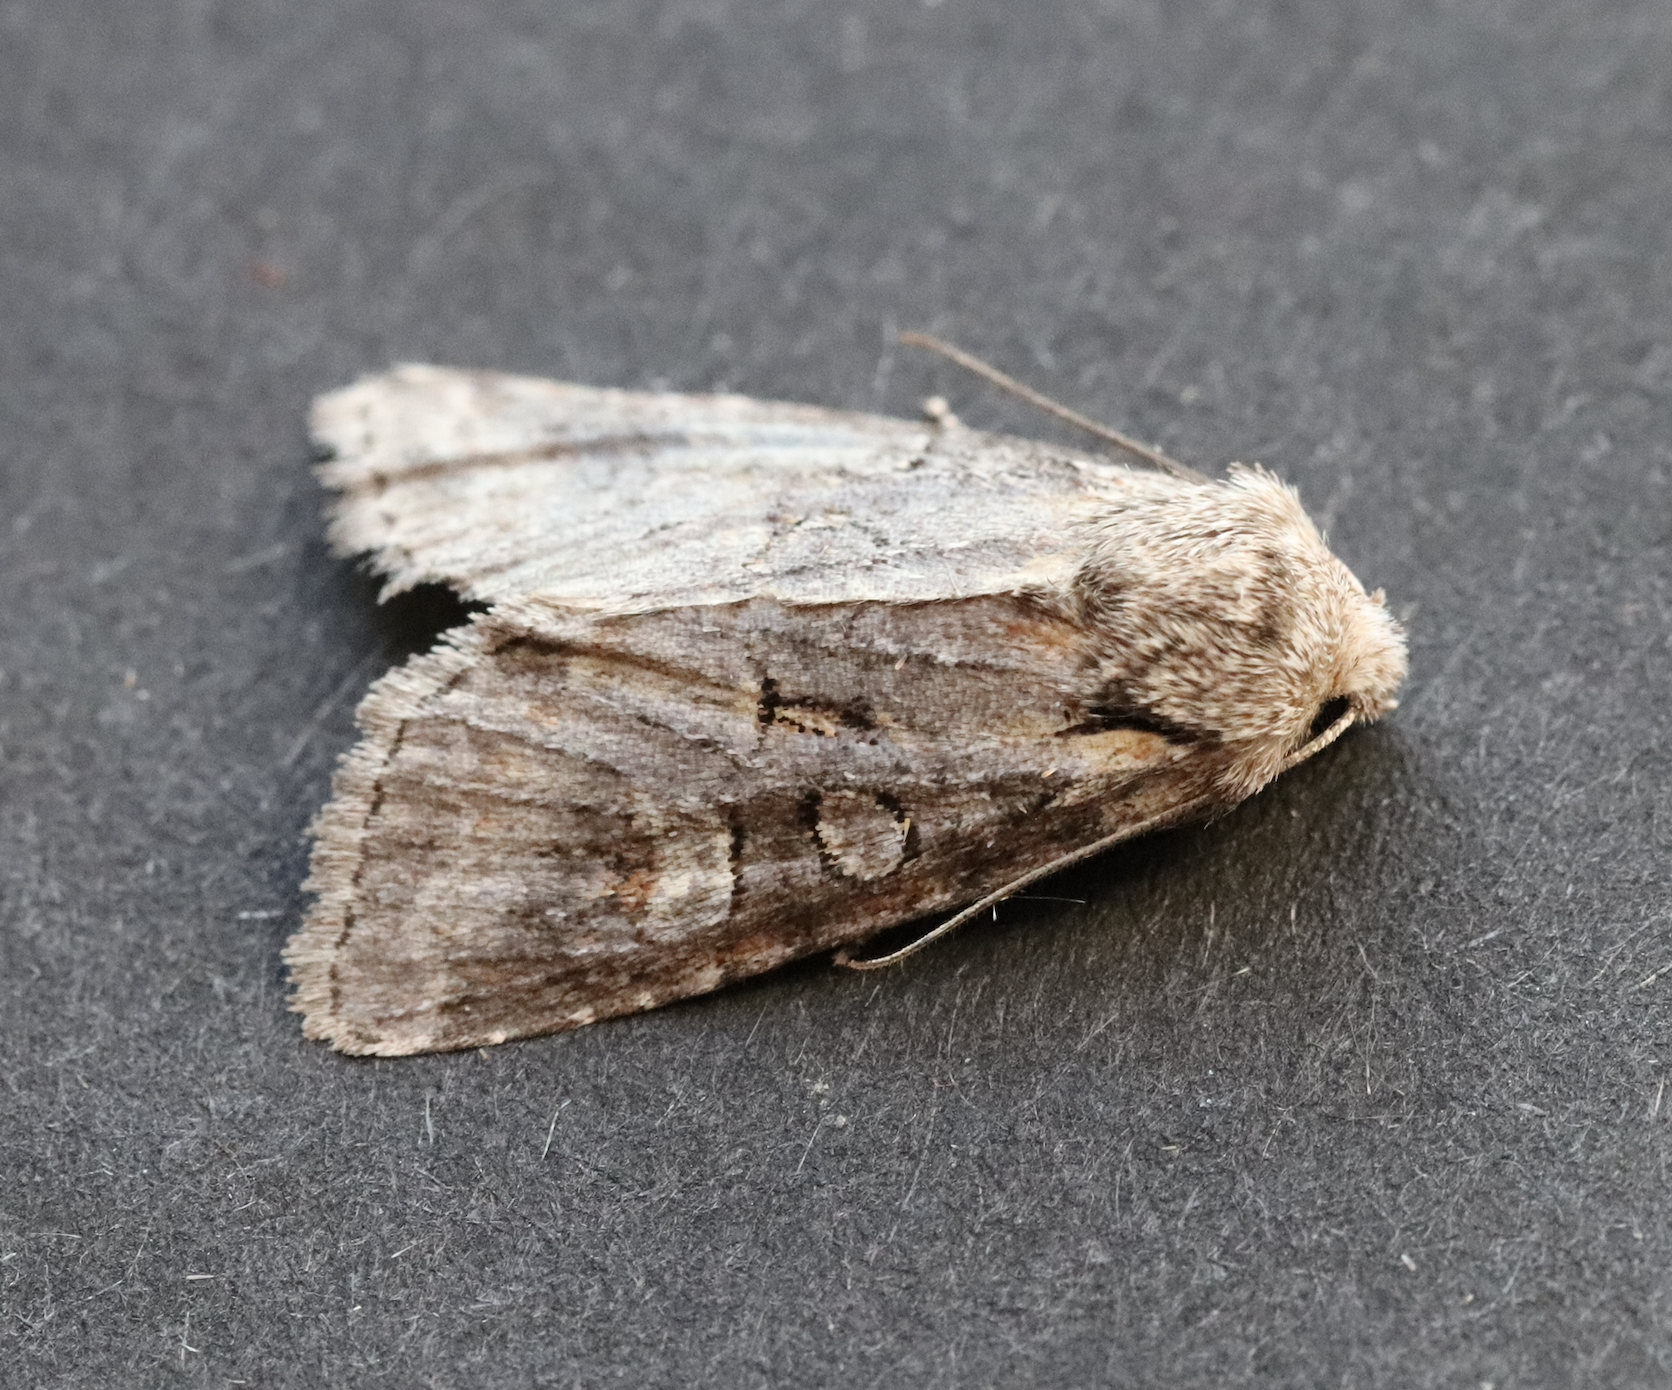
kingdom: Animalia
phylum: Arthropoda
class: Insecta
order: Lepidoptera
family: Noctuidae
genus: Brachylomia
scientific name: Brachylomia viminalis
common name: Minor shoulder-knot
